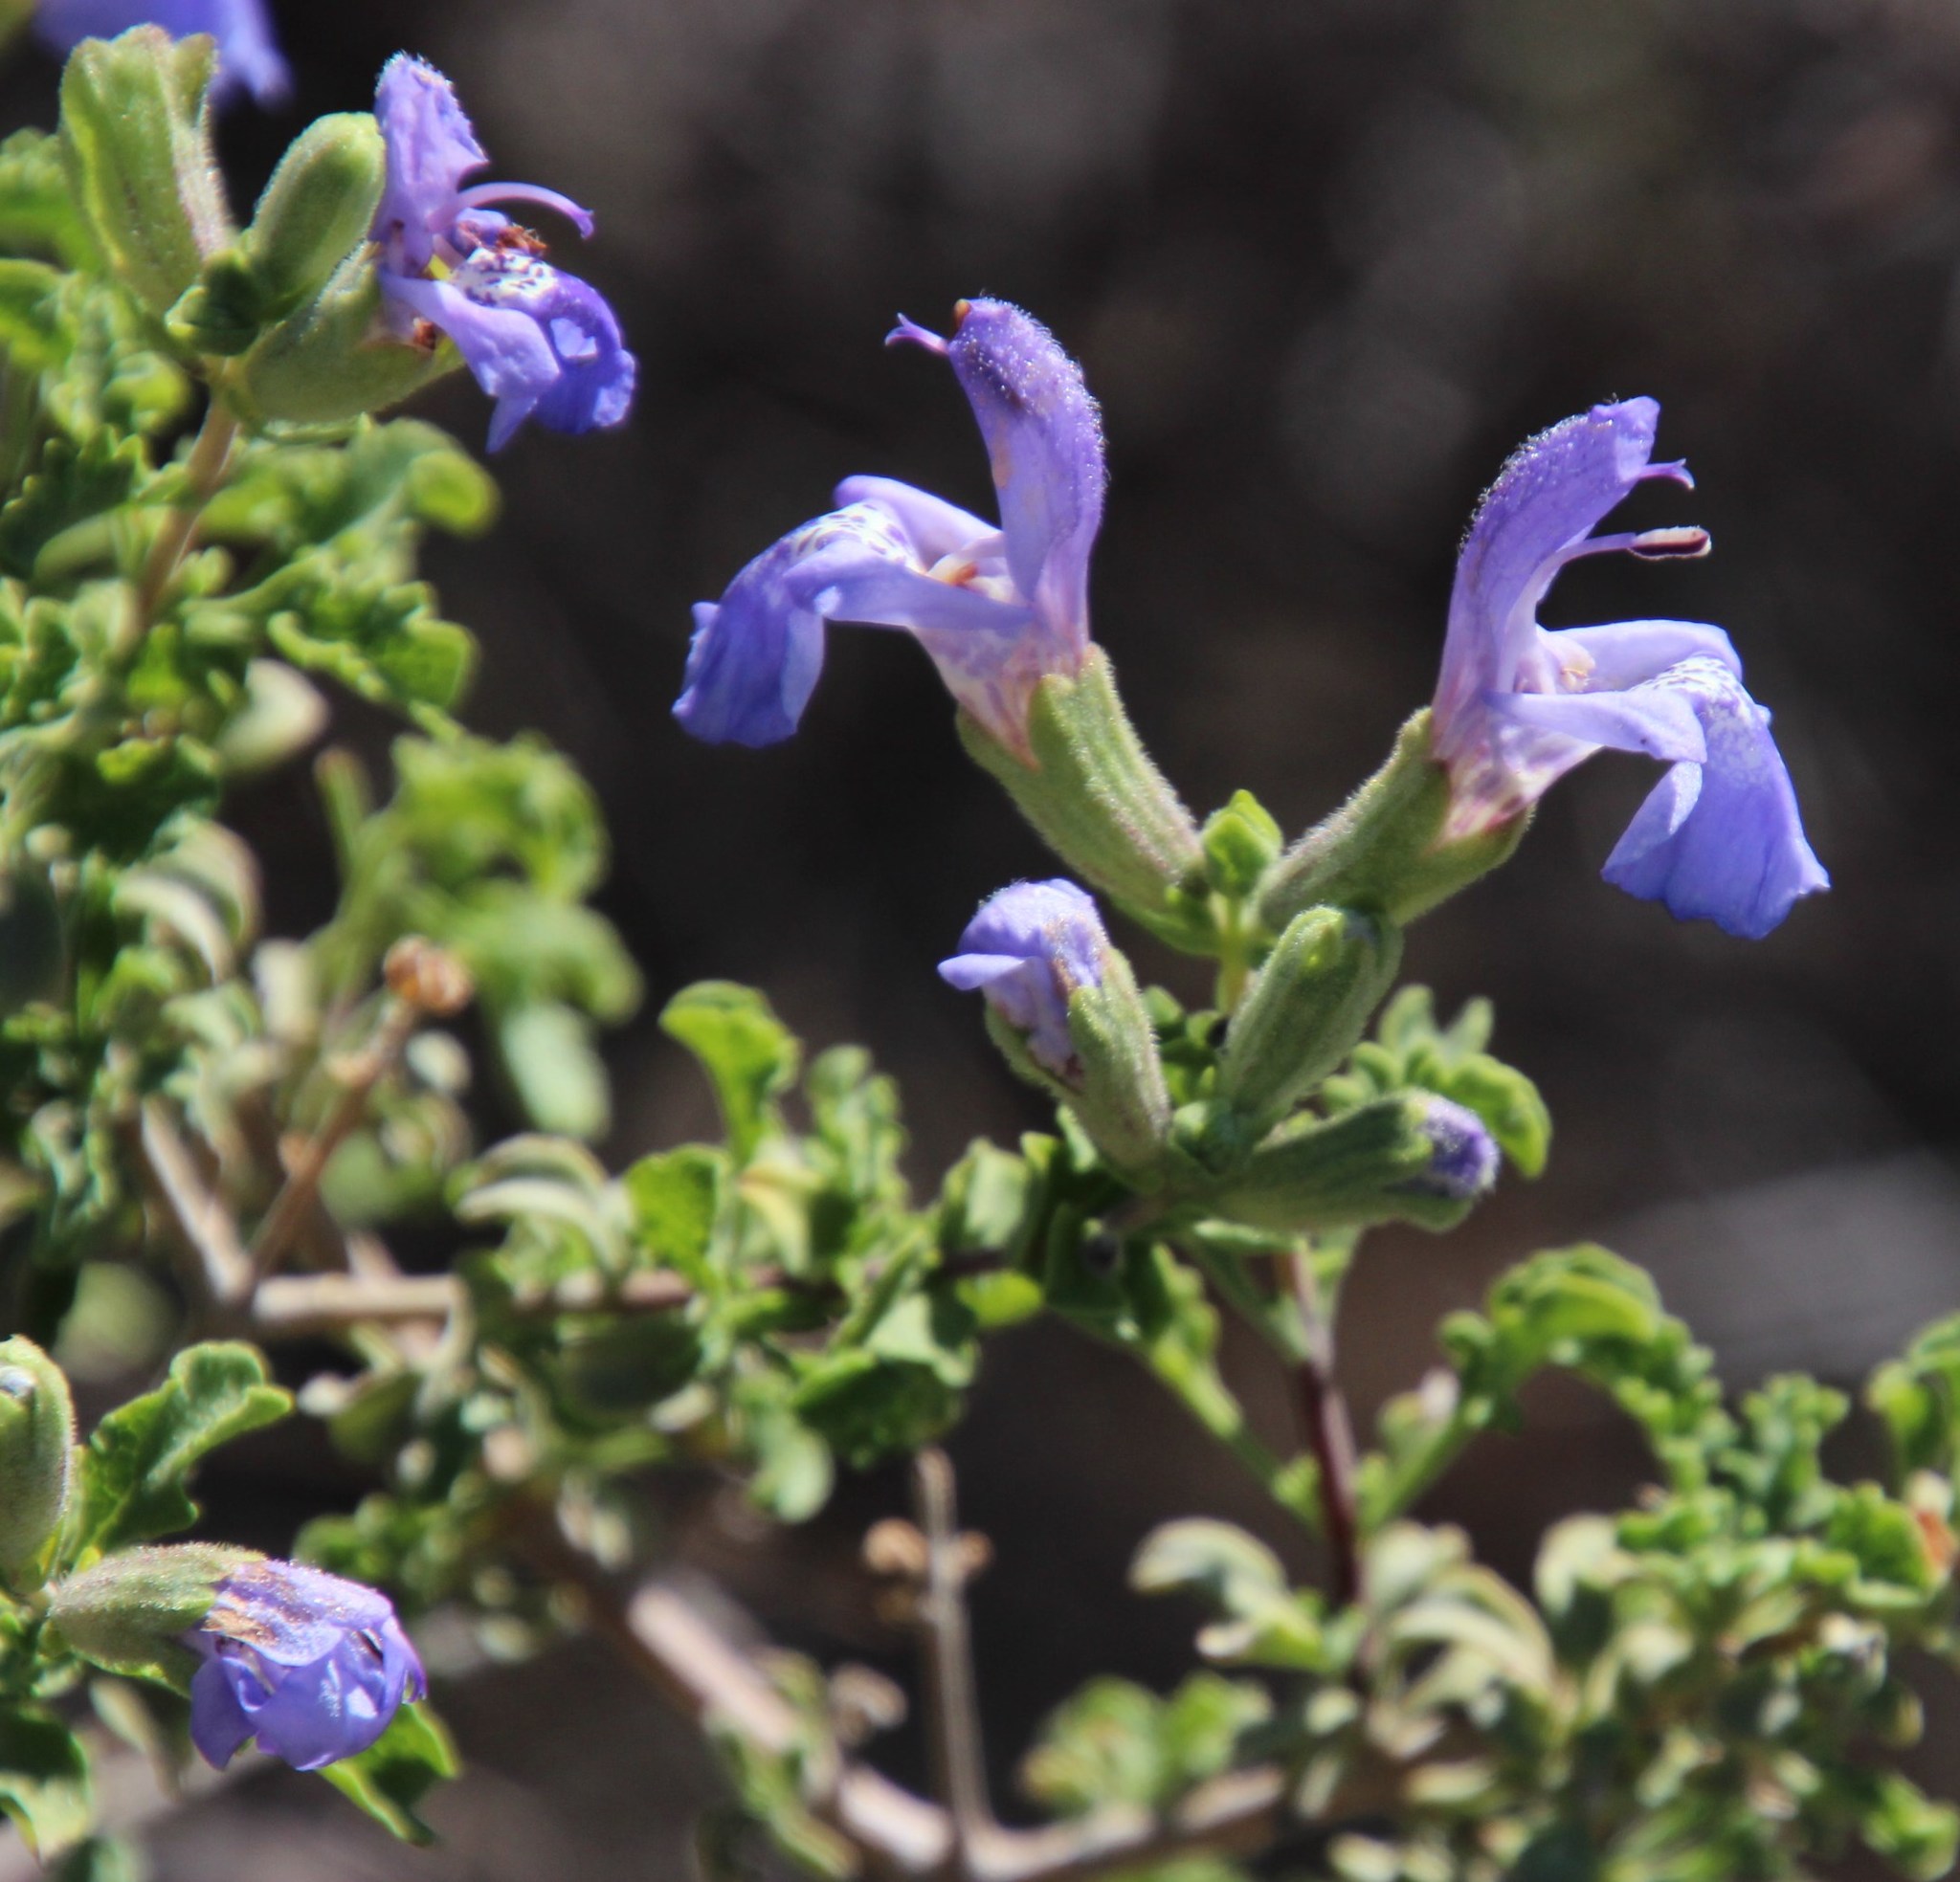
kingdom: Plantae
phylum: Tracheophyta
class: Magnoliopsida
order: Lamiales
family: Lamiaceae
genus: Salvia
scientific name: Salvia dentata
